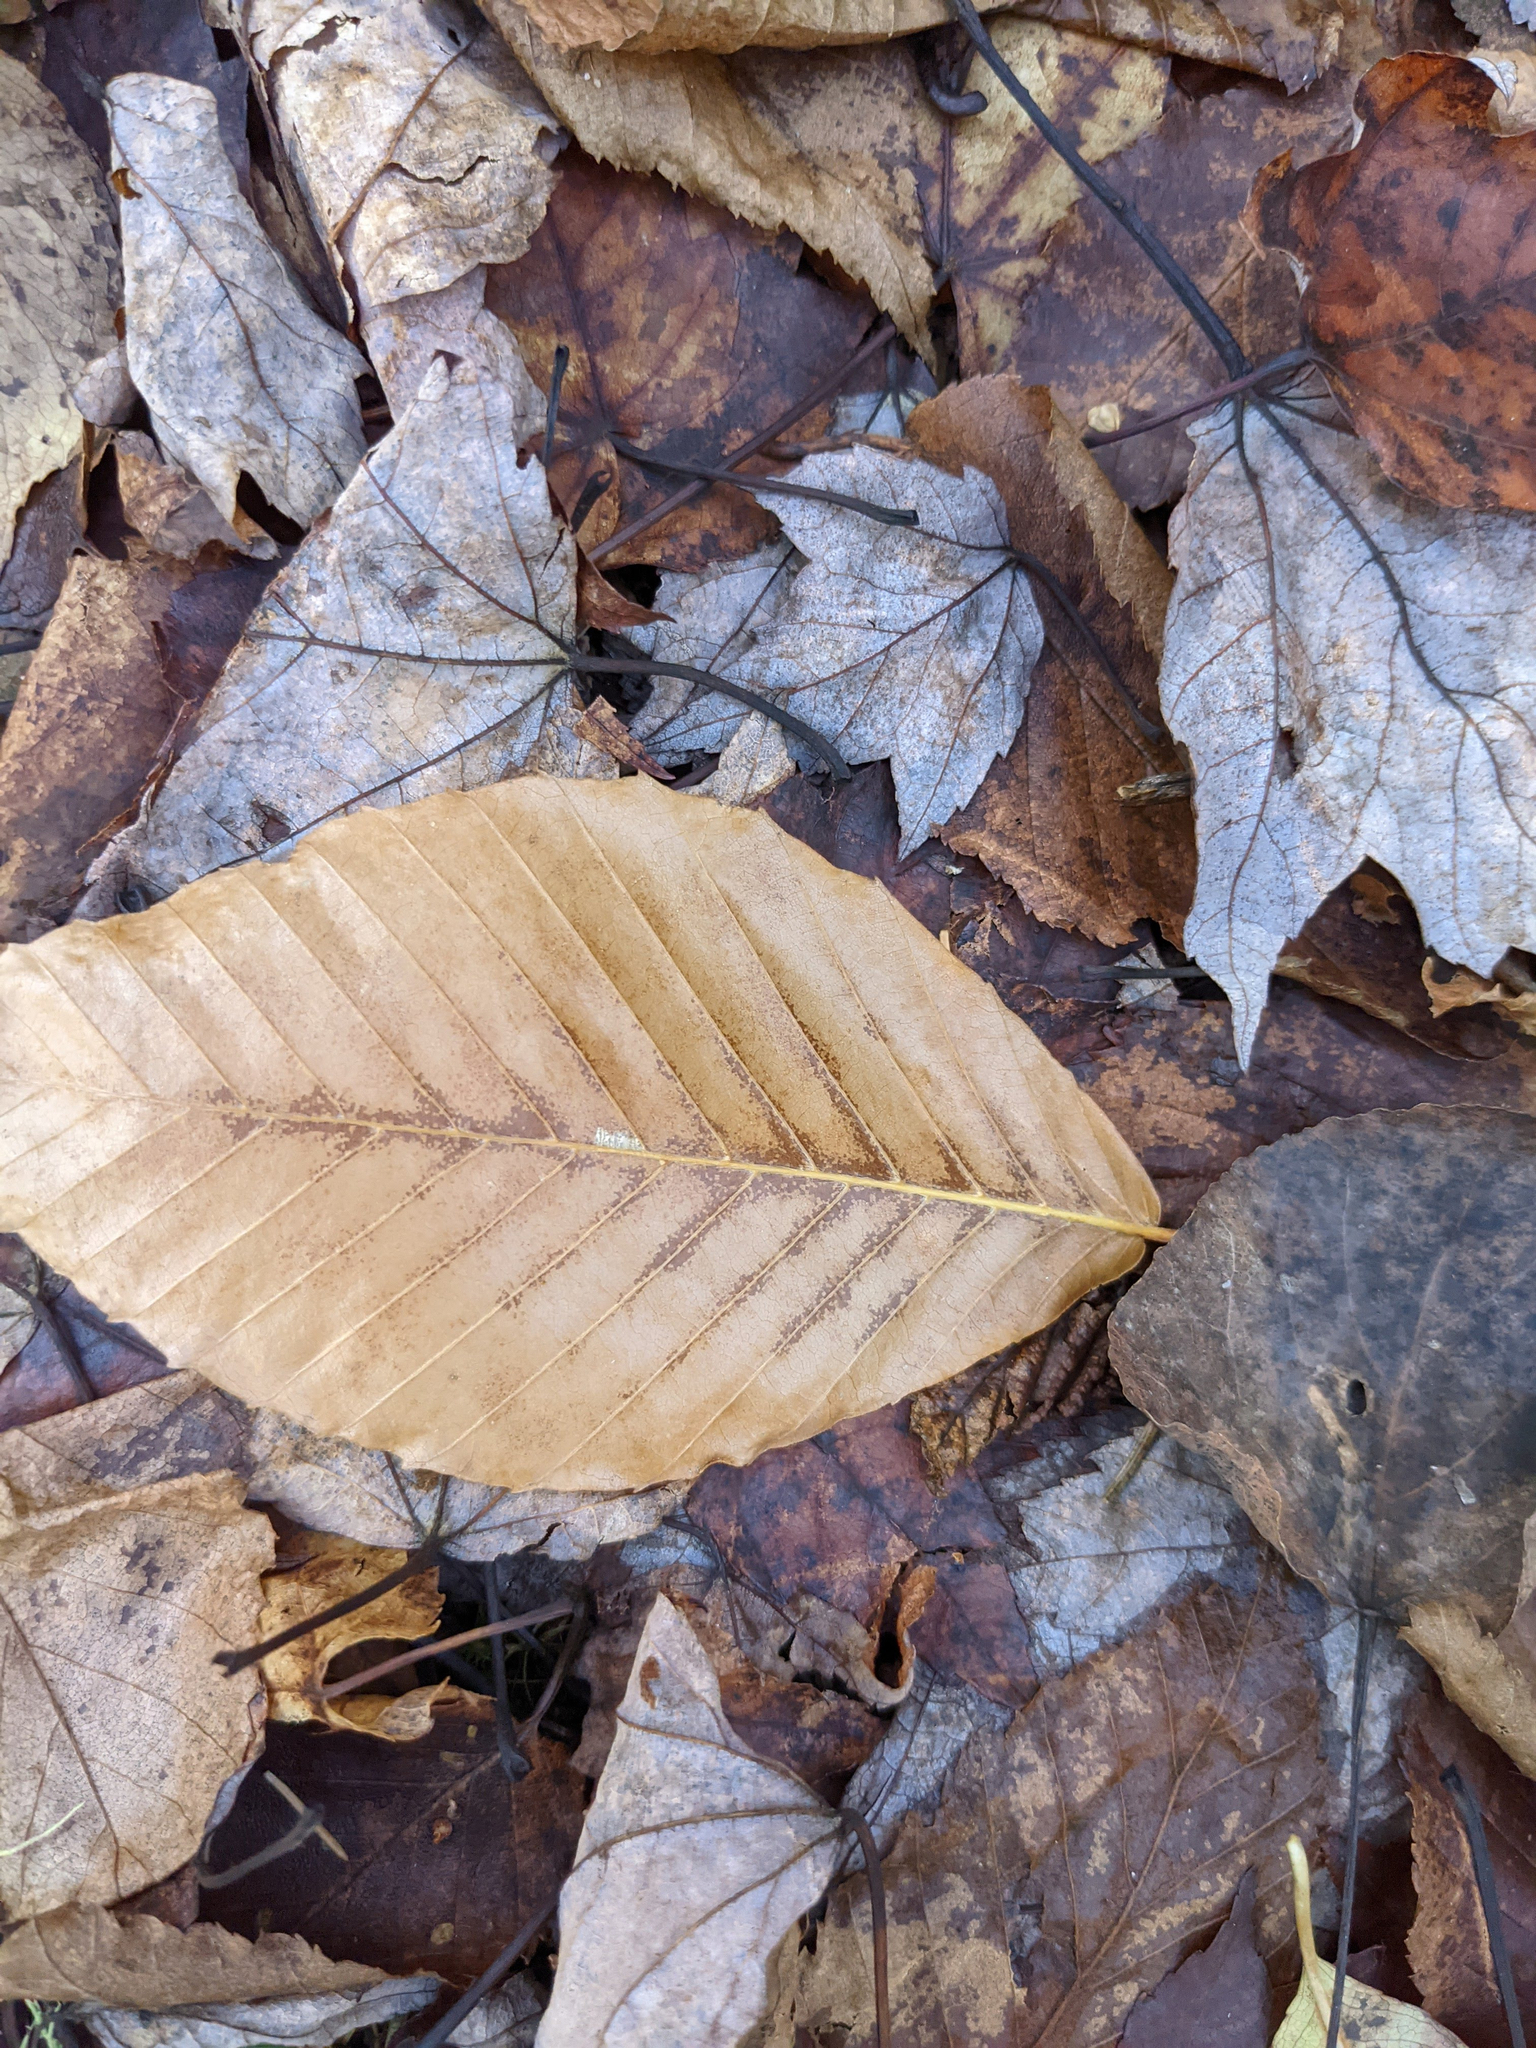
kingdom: Plantae
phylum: Tracheophyta
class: Magnoliopsida
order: Fagales
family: Fagaceae
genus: Fagus
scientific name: Fagus grandifolia
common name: American beech
